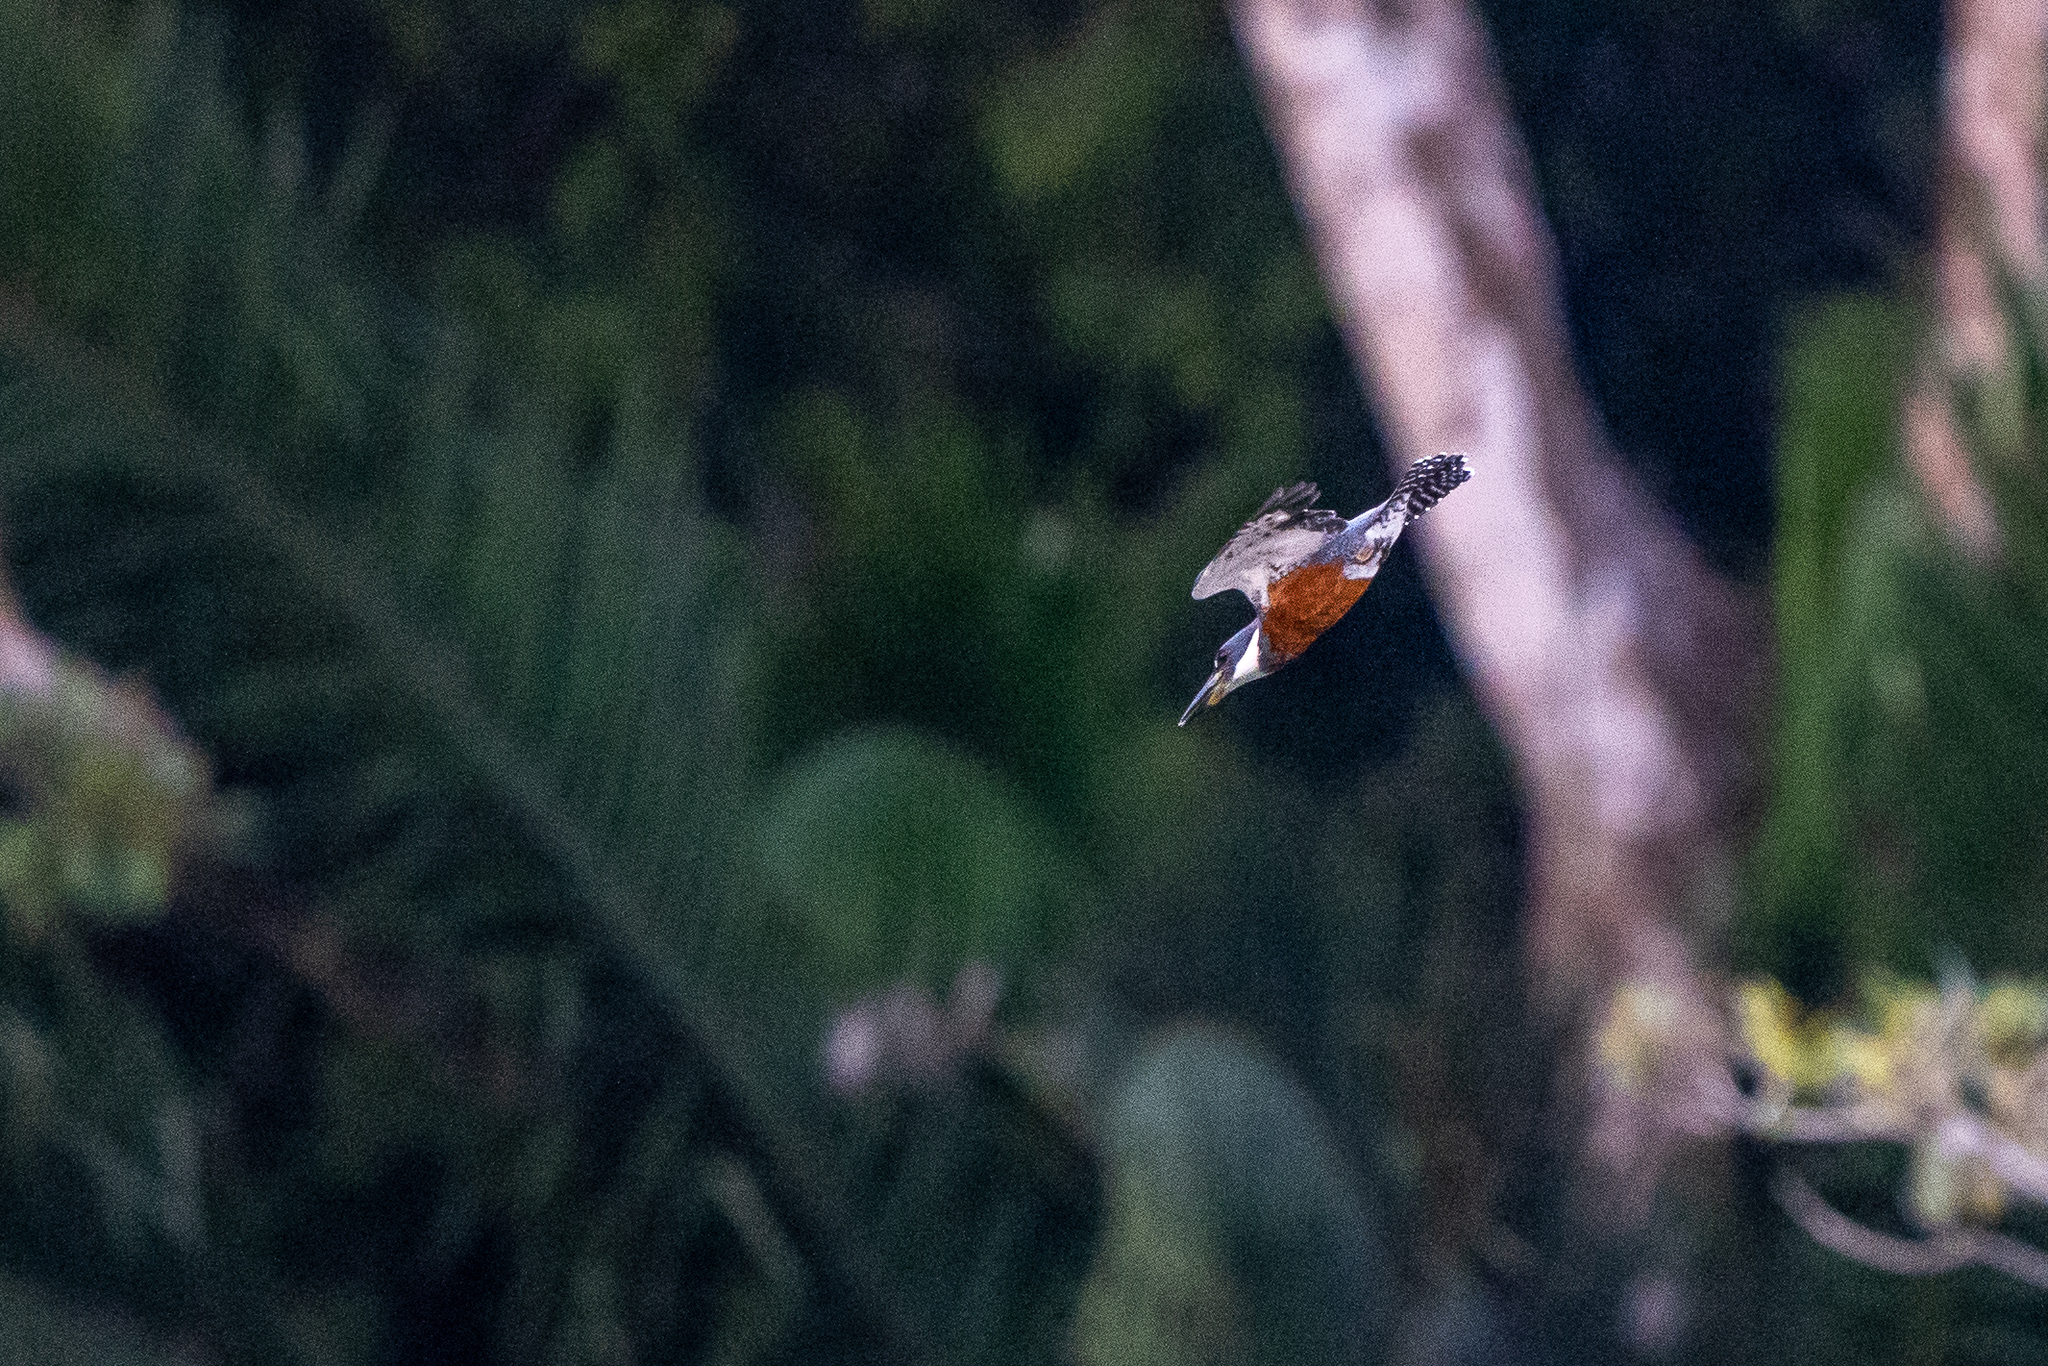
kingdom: Animalia
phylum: Chordata
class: Aves
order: Coraciiformes
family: Alcedinidae
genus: Megaceryle
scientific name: Megaceryle torquata
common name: Ringed kingfisher
